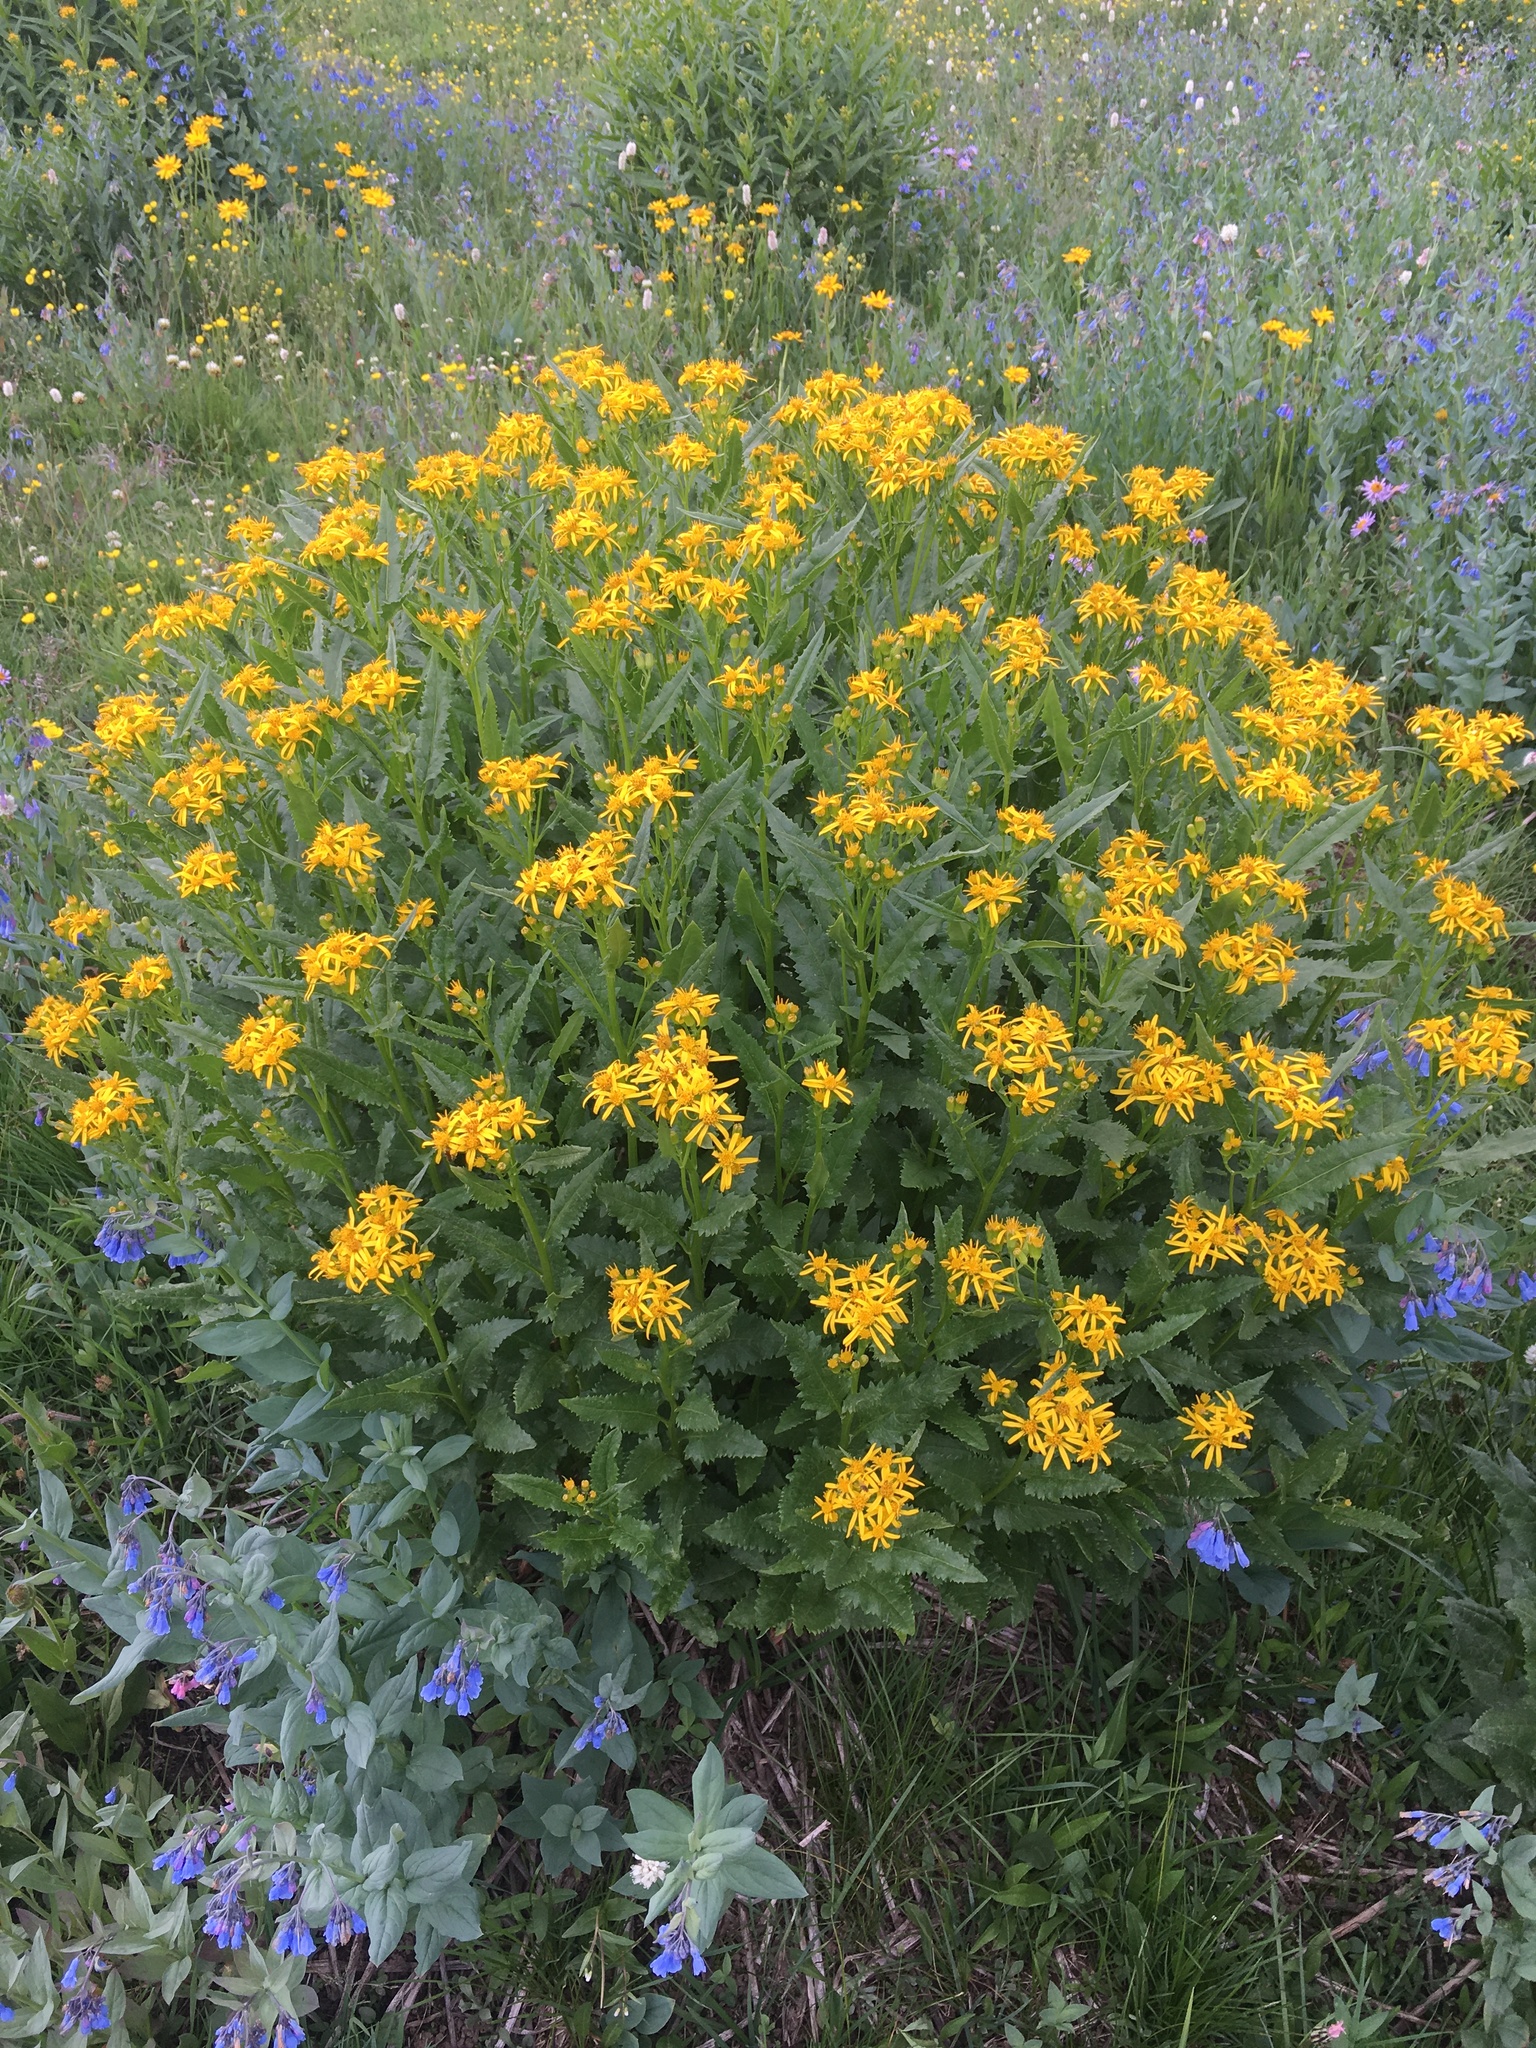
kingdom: Plantae
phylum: Tracheophyta
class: Magnoliopsida
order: Asterales
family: Asteraceae
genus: Senecio
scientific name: Senecio triangularis
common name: Arrowleaf butterweed
